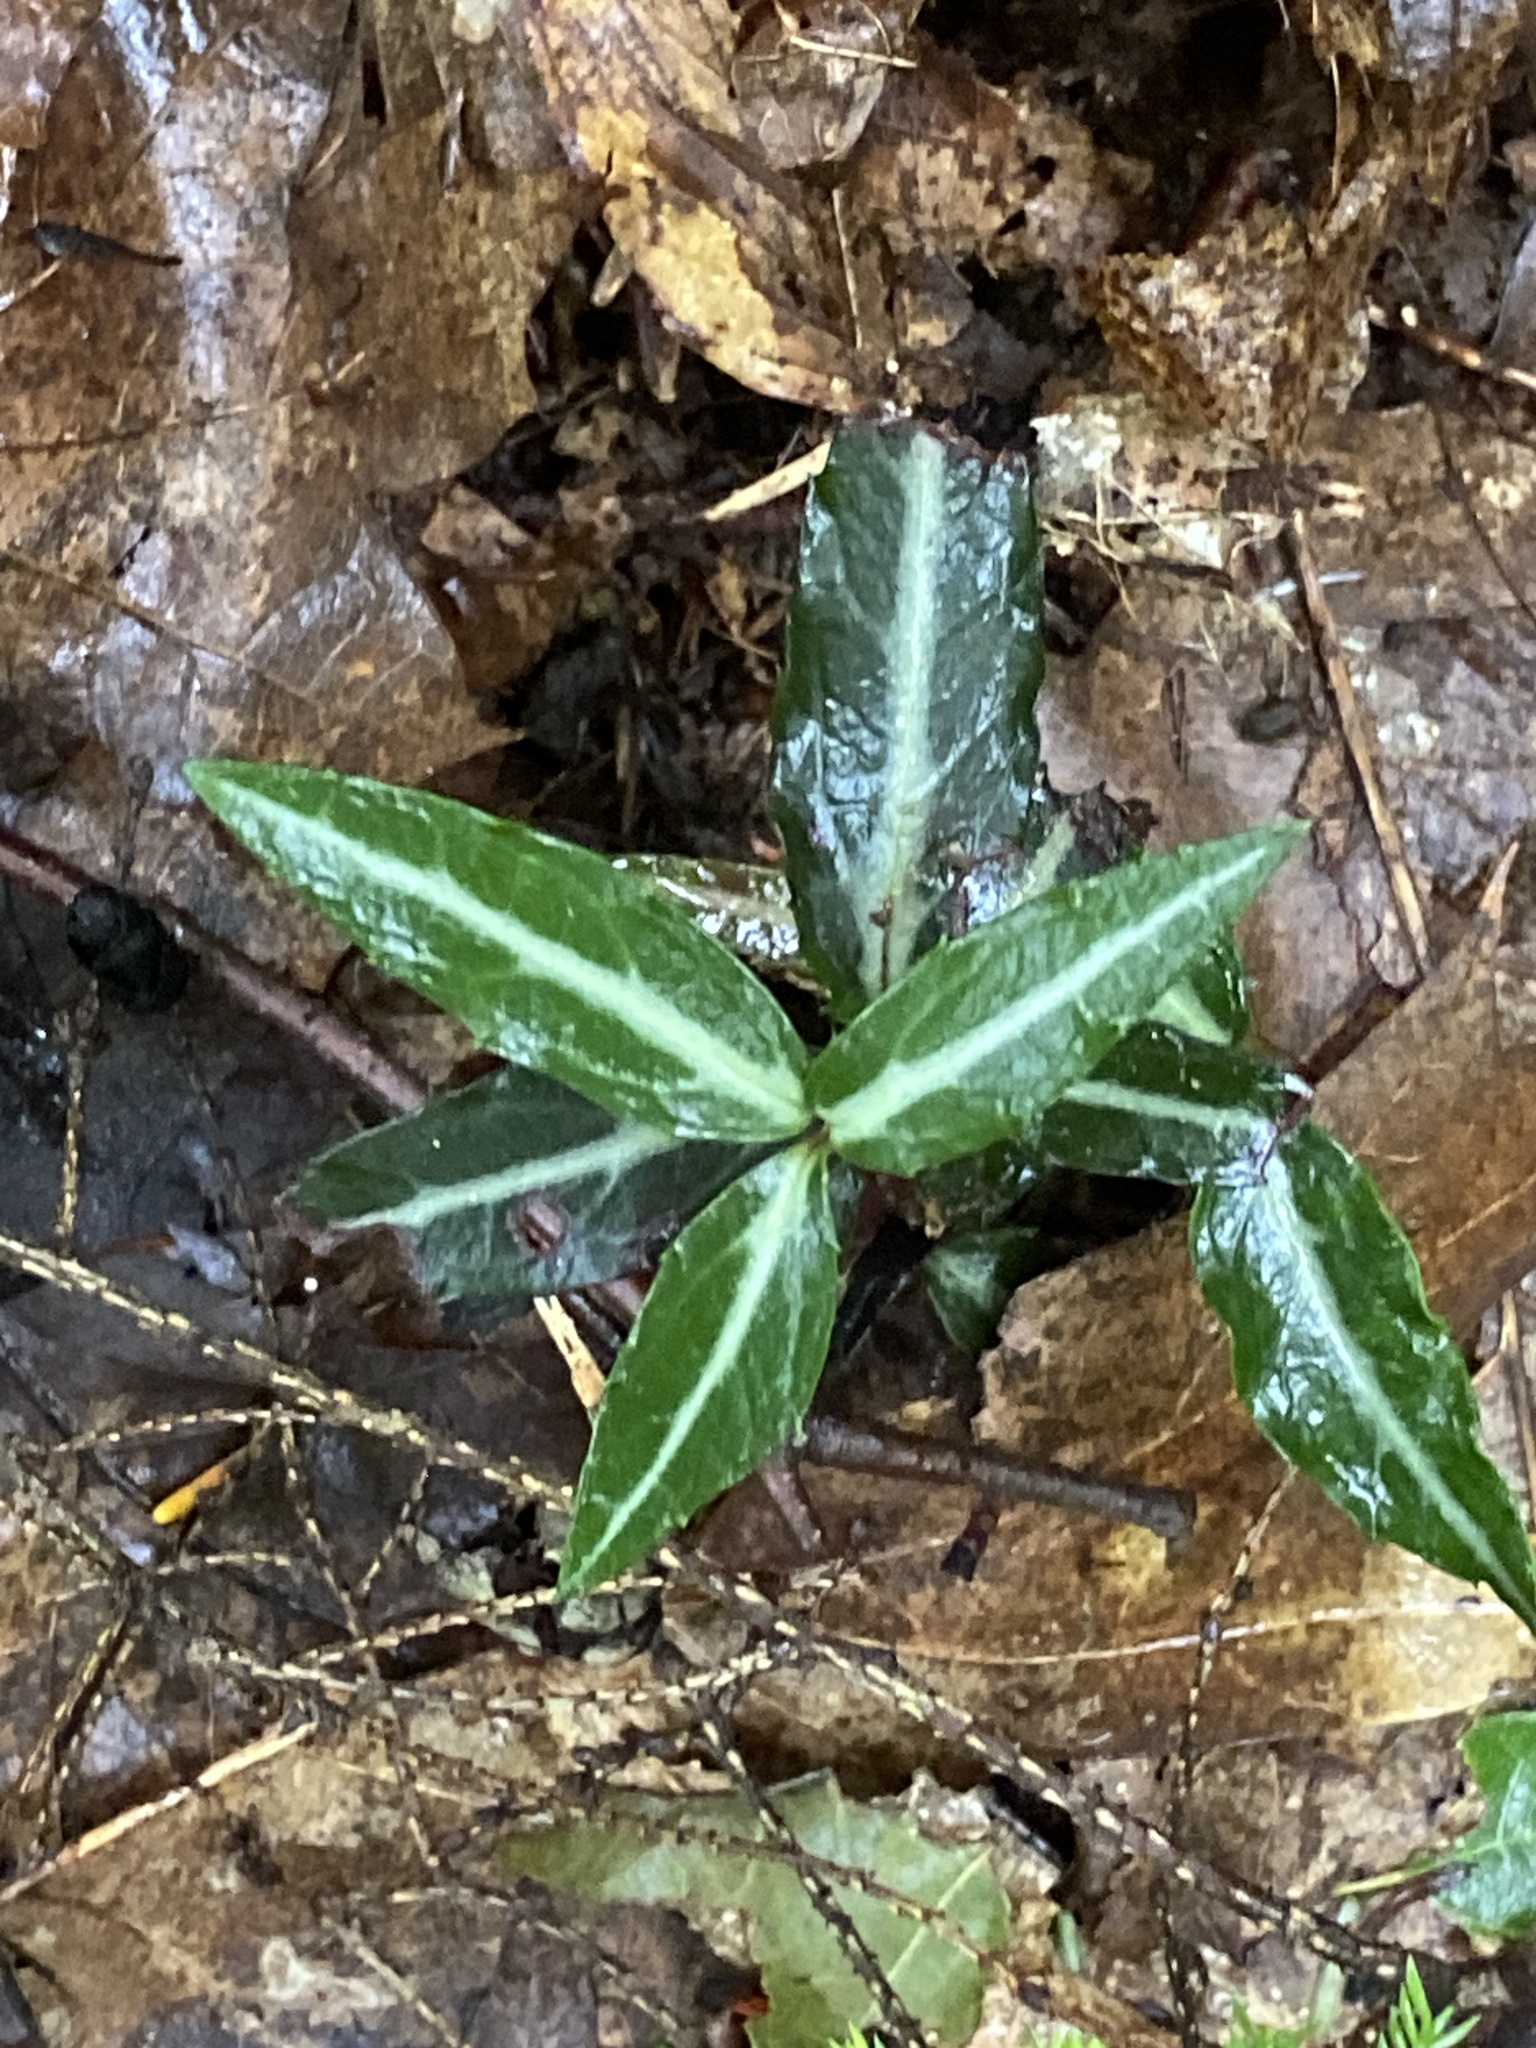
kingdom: Plantae
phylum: Tracheophyta
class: Magnoliopsida
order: Ericales
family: Ericaceae
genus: Chimaphila
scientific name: Chimaphila maculata
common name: Spotted pipsissewa
